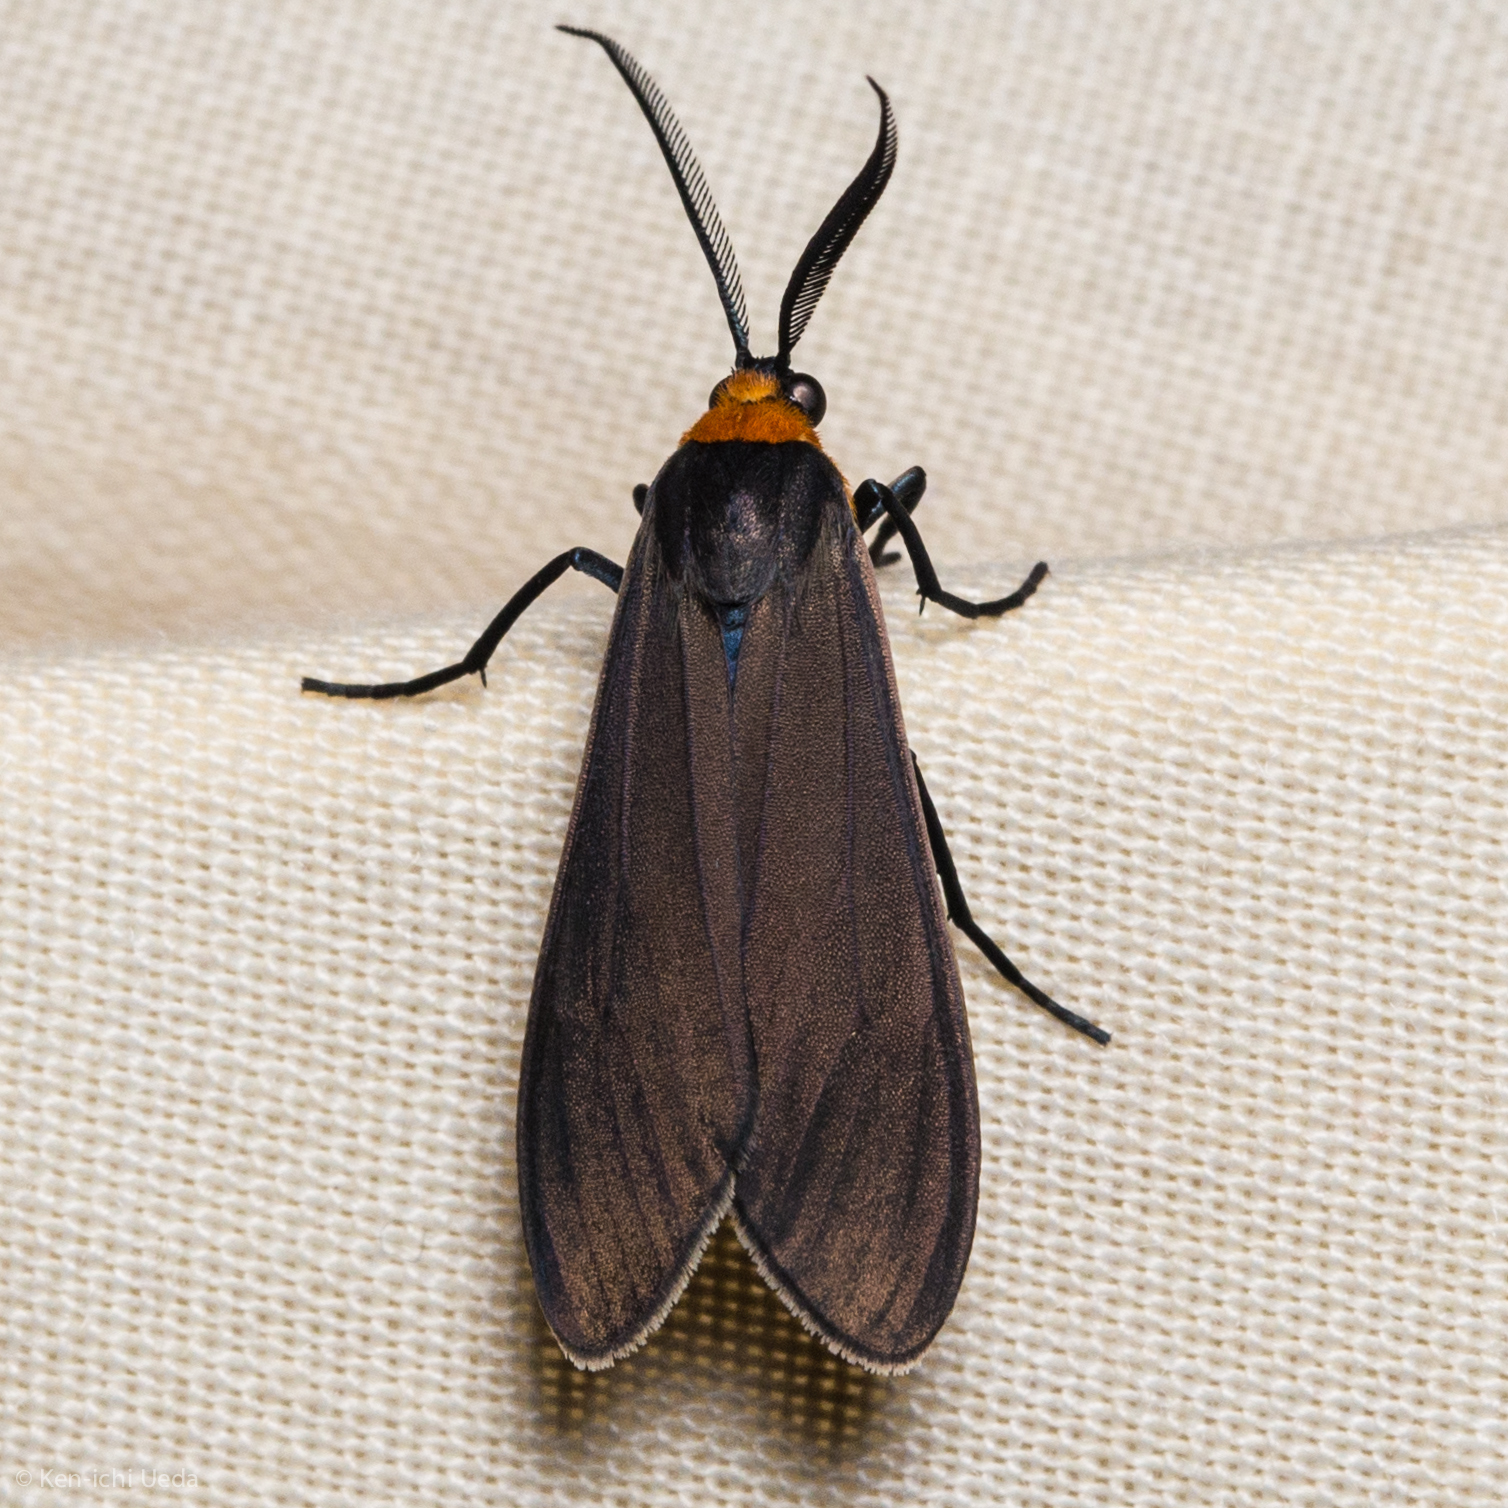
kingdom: Animalia
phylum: Arthropoda
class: Insecta
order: Lepidoptera
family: Erebidae
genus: Cisseps
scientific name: Cisseps fulvicollis
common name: Yellow-collared scape moth
